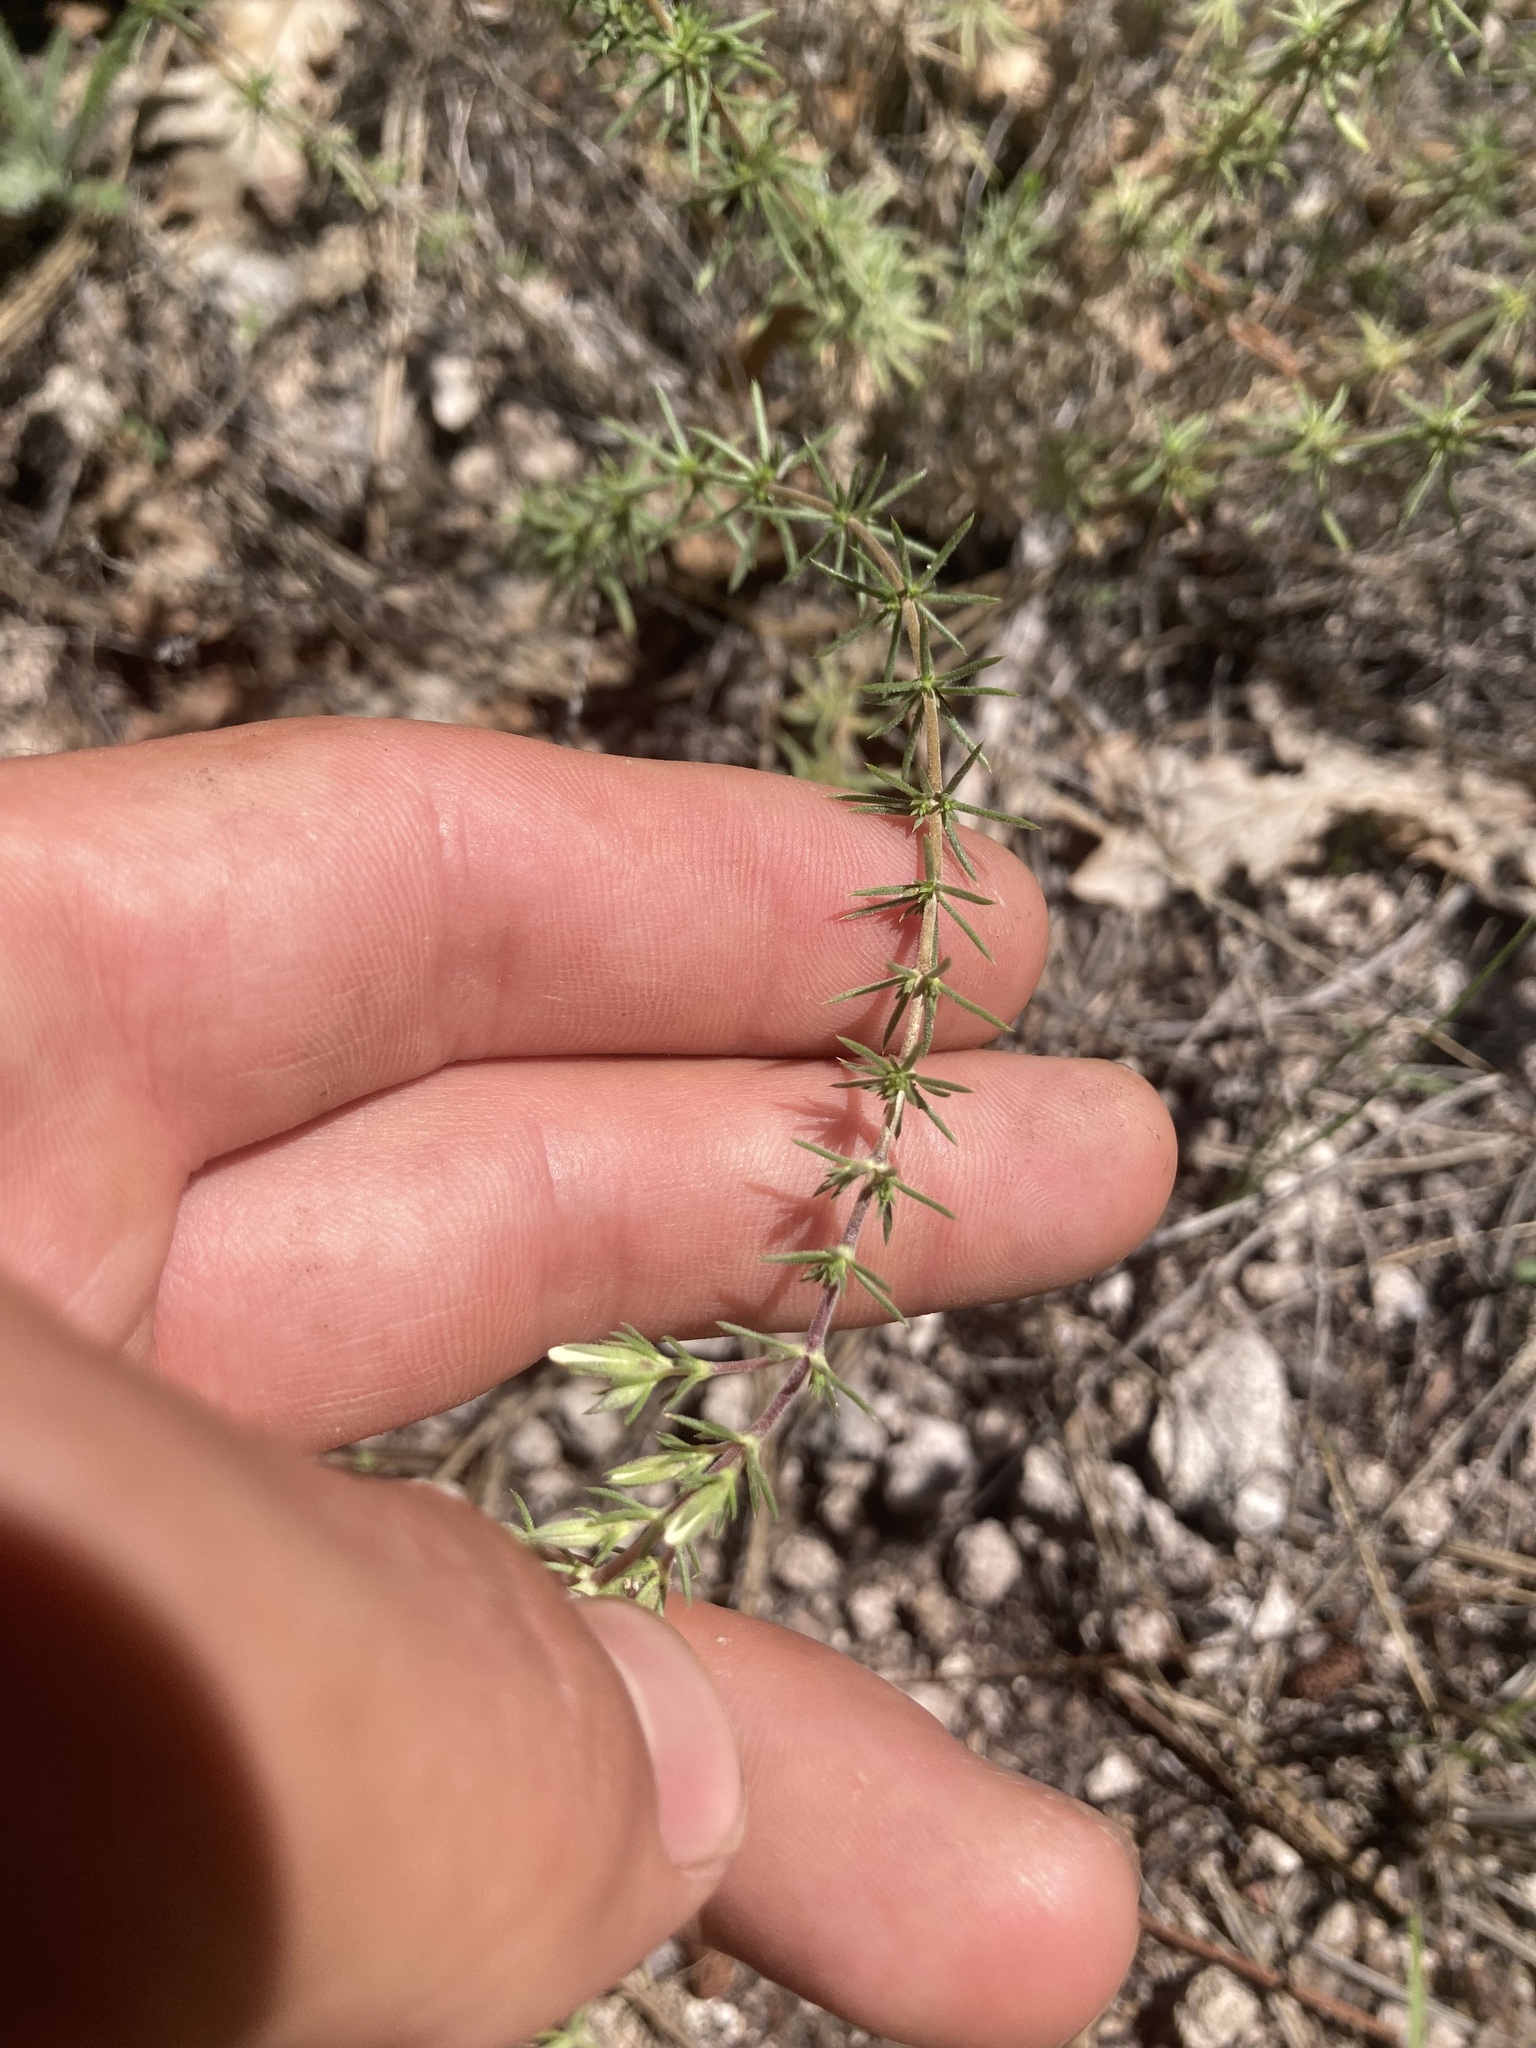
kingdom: Plantae
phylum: Tracheophyta
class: Magnoliopsida
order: Ericales
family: Polemoniaceae
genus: Leptosiphon
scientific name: Leptosiphon nuttallii
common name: Nuttall's linanthus
